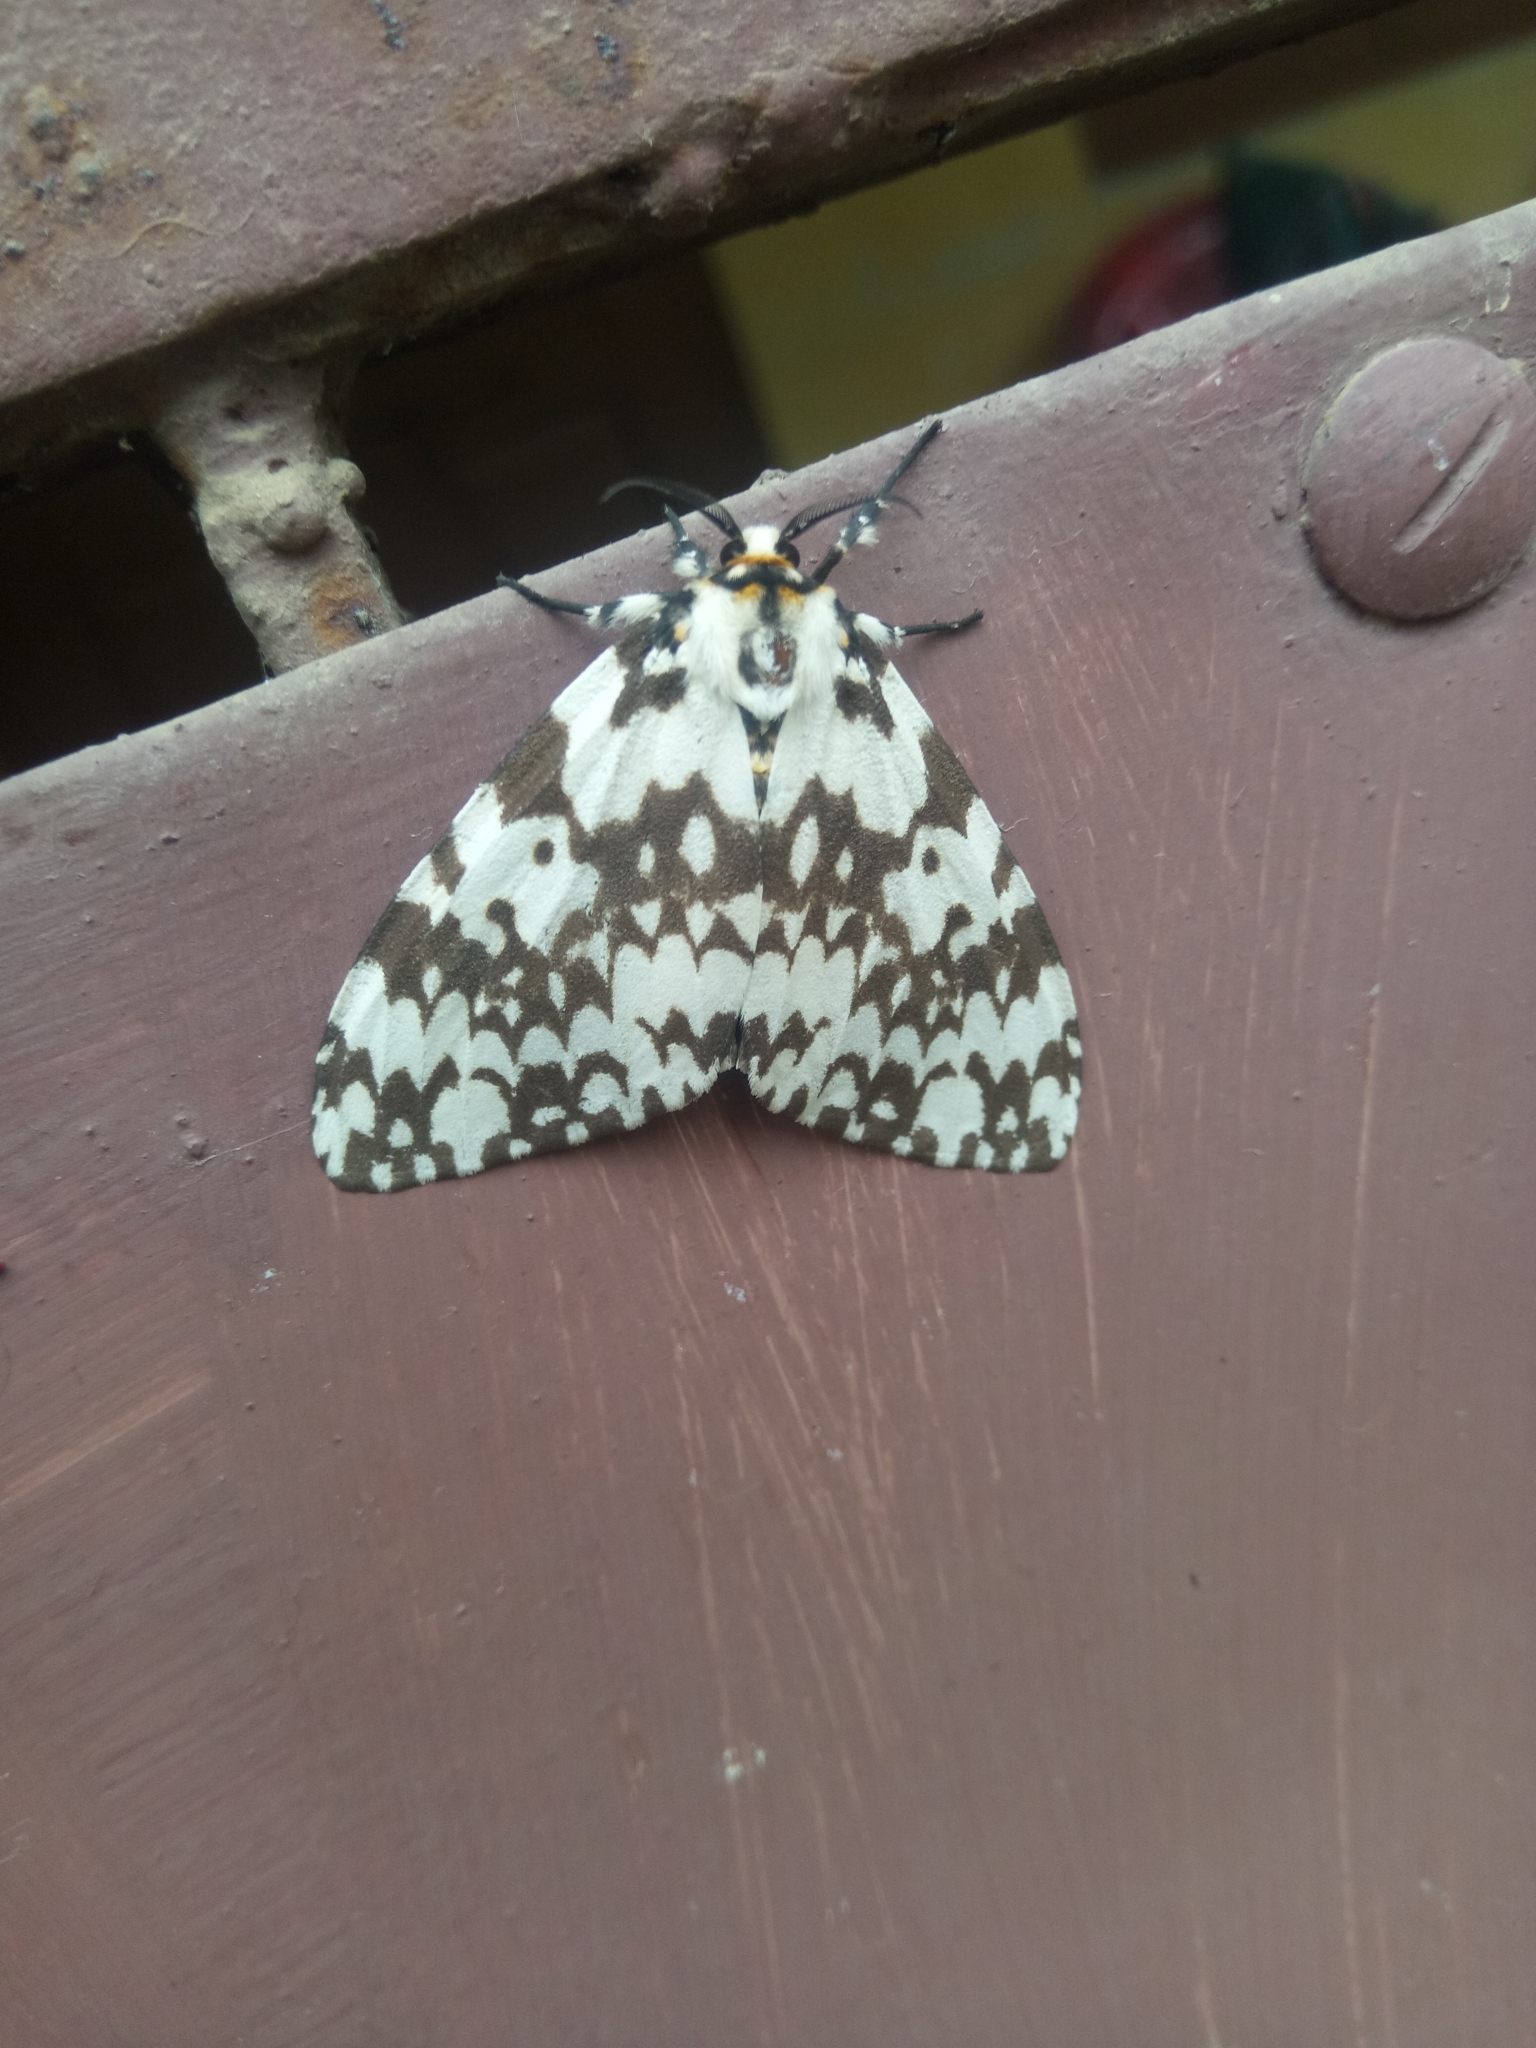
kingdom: Animalia
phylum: Arthropoda
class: Insecta
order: Lepidoptera
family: Erebidae
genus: Lymantria
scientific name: Lymantria marginata
